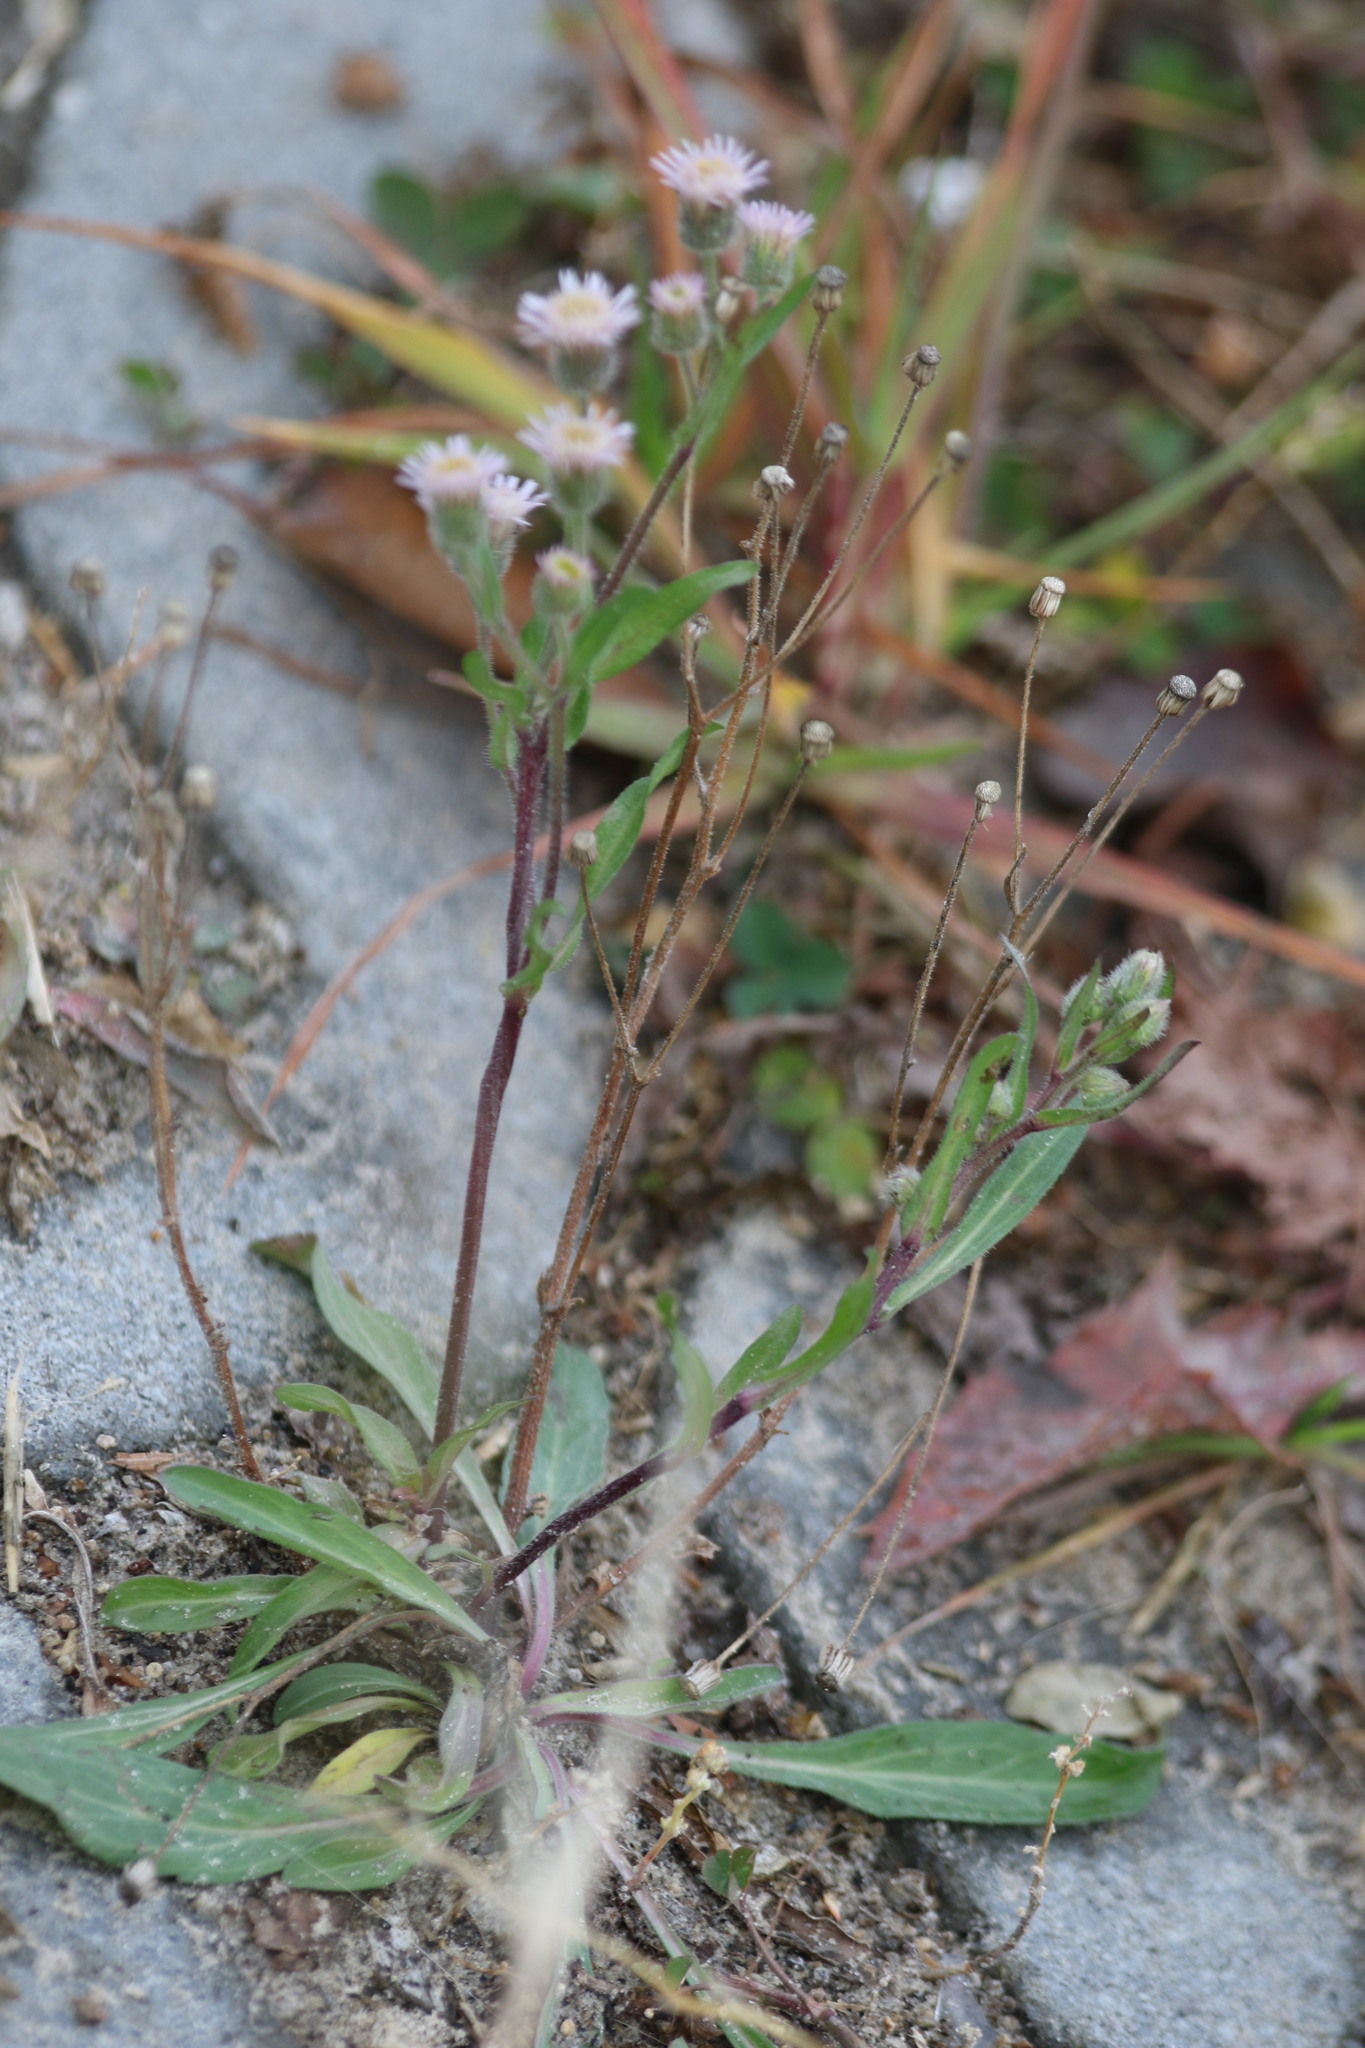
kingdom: Plantae
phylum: Tracheophyta
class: Magnoliopsida
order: Asterales
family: Asteraceae
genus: Erigeron
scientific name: Erigeron acris
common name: Blue fleabane
